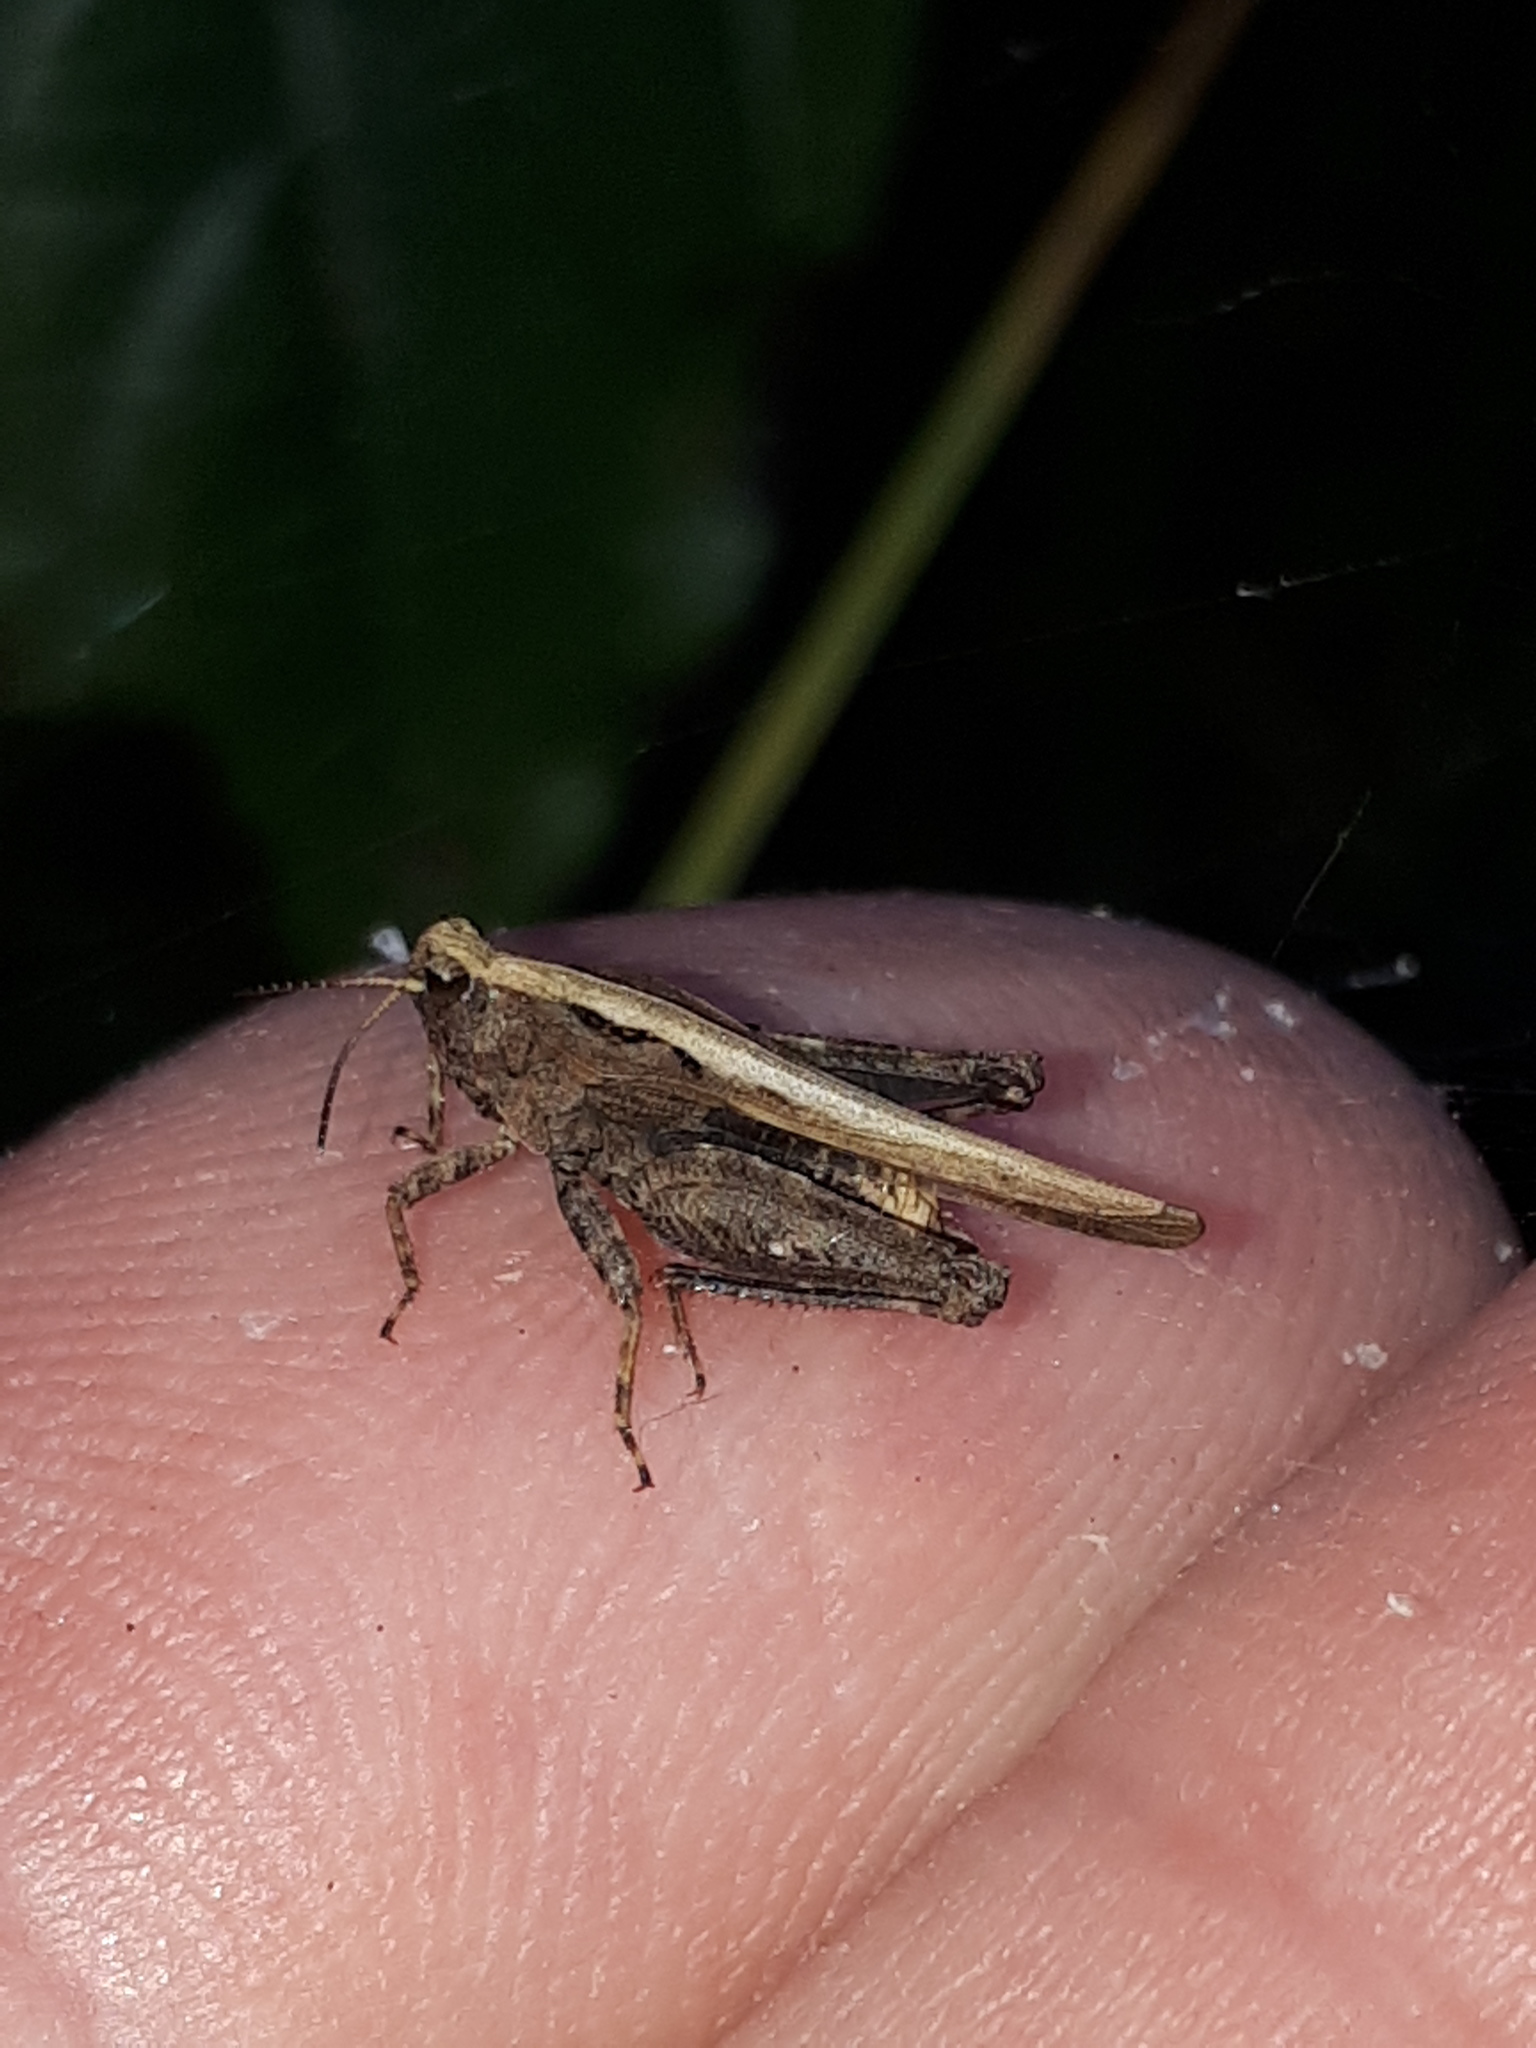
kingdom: Animalia
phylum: Arthropoda
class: Insecta
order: Orthoptera
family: Tetrigidae
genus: Tetrix
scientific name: Tetrix subulata
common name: Slender ground-hopper
